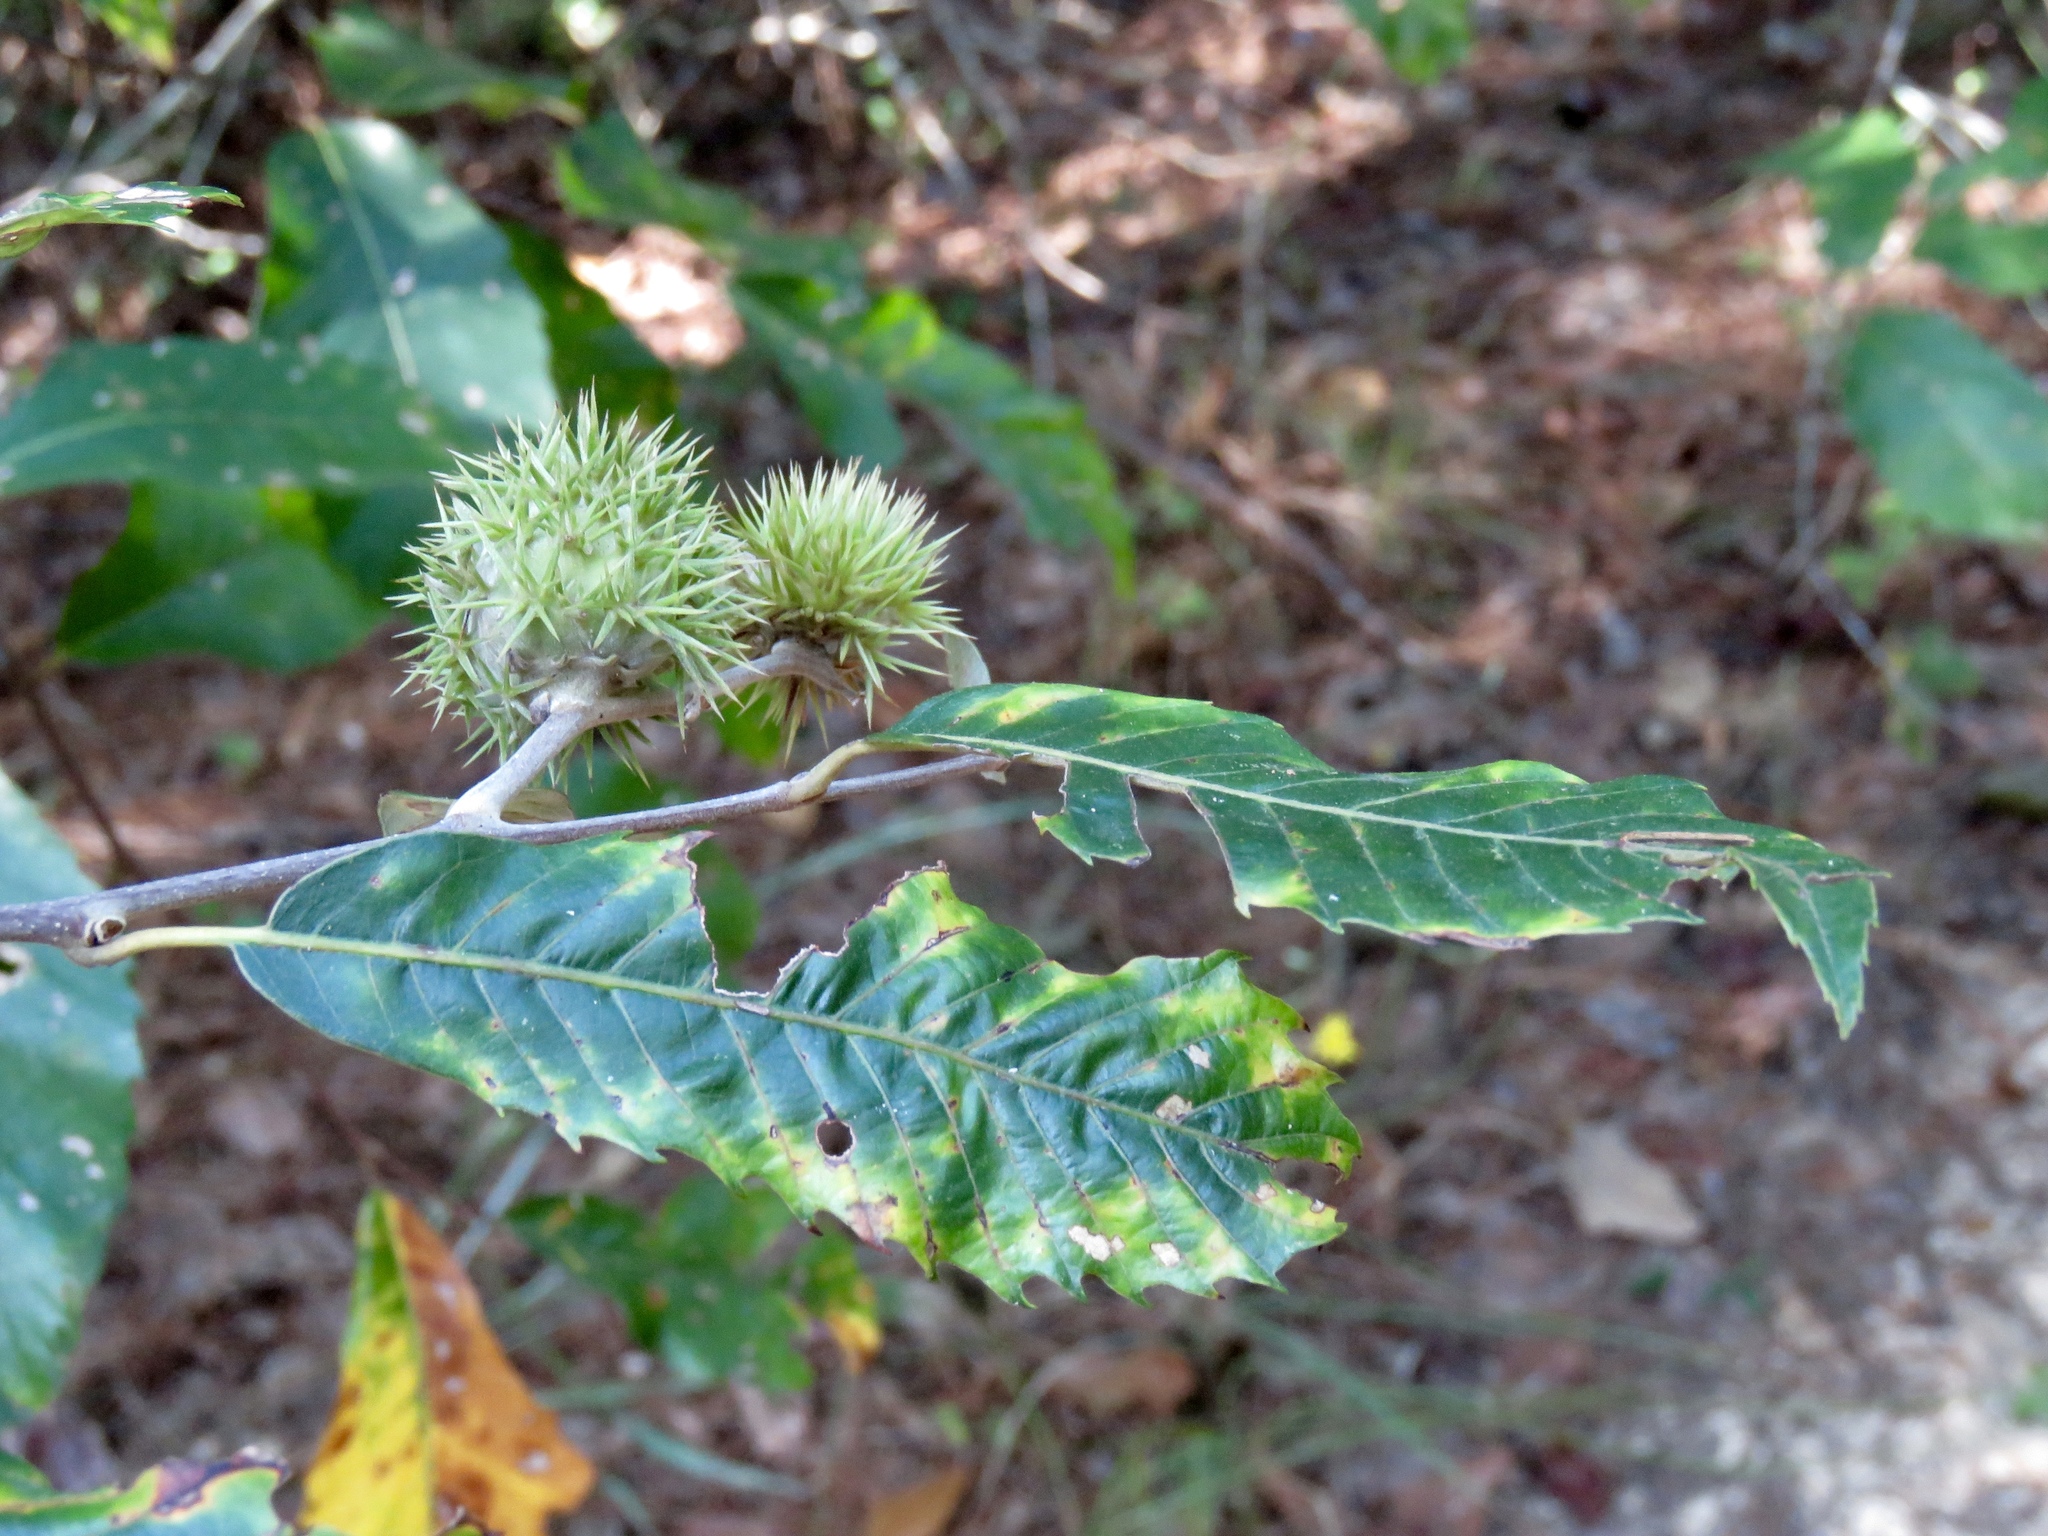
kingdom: Plantae
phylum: Tracheophyta
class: Magnoliopsida
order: Fagales
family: Fagaceae
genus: Castanea
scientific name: Castanea pumila
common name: Chinkapin
